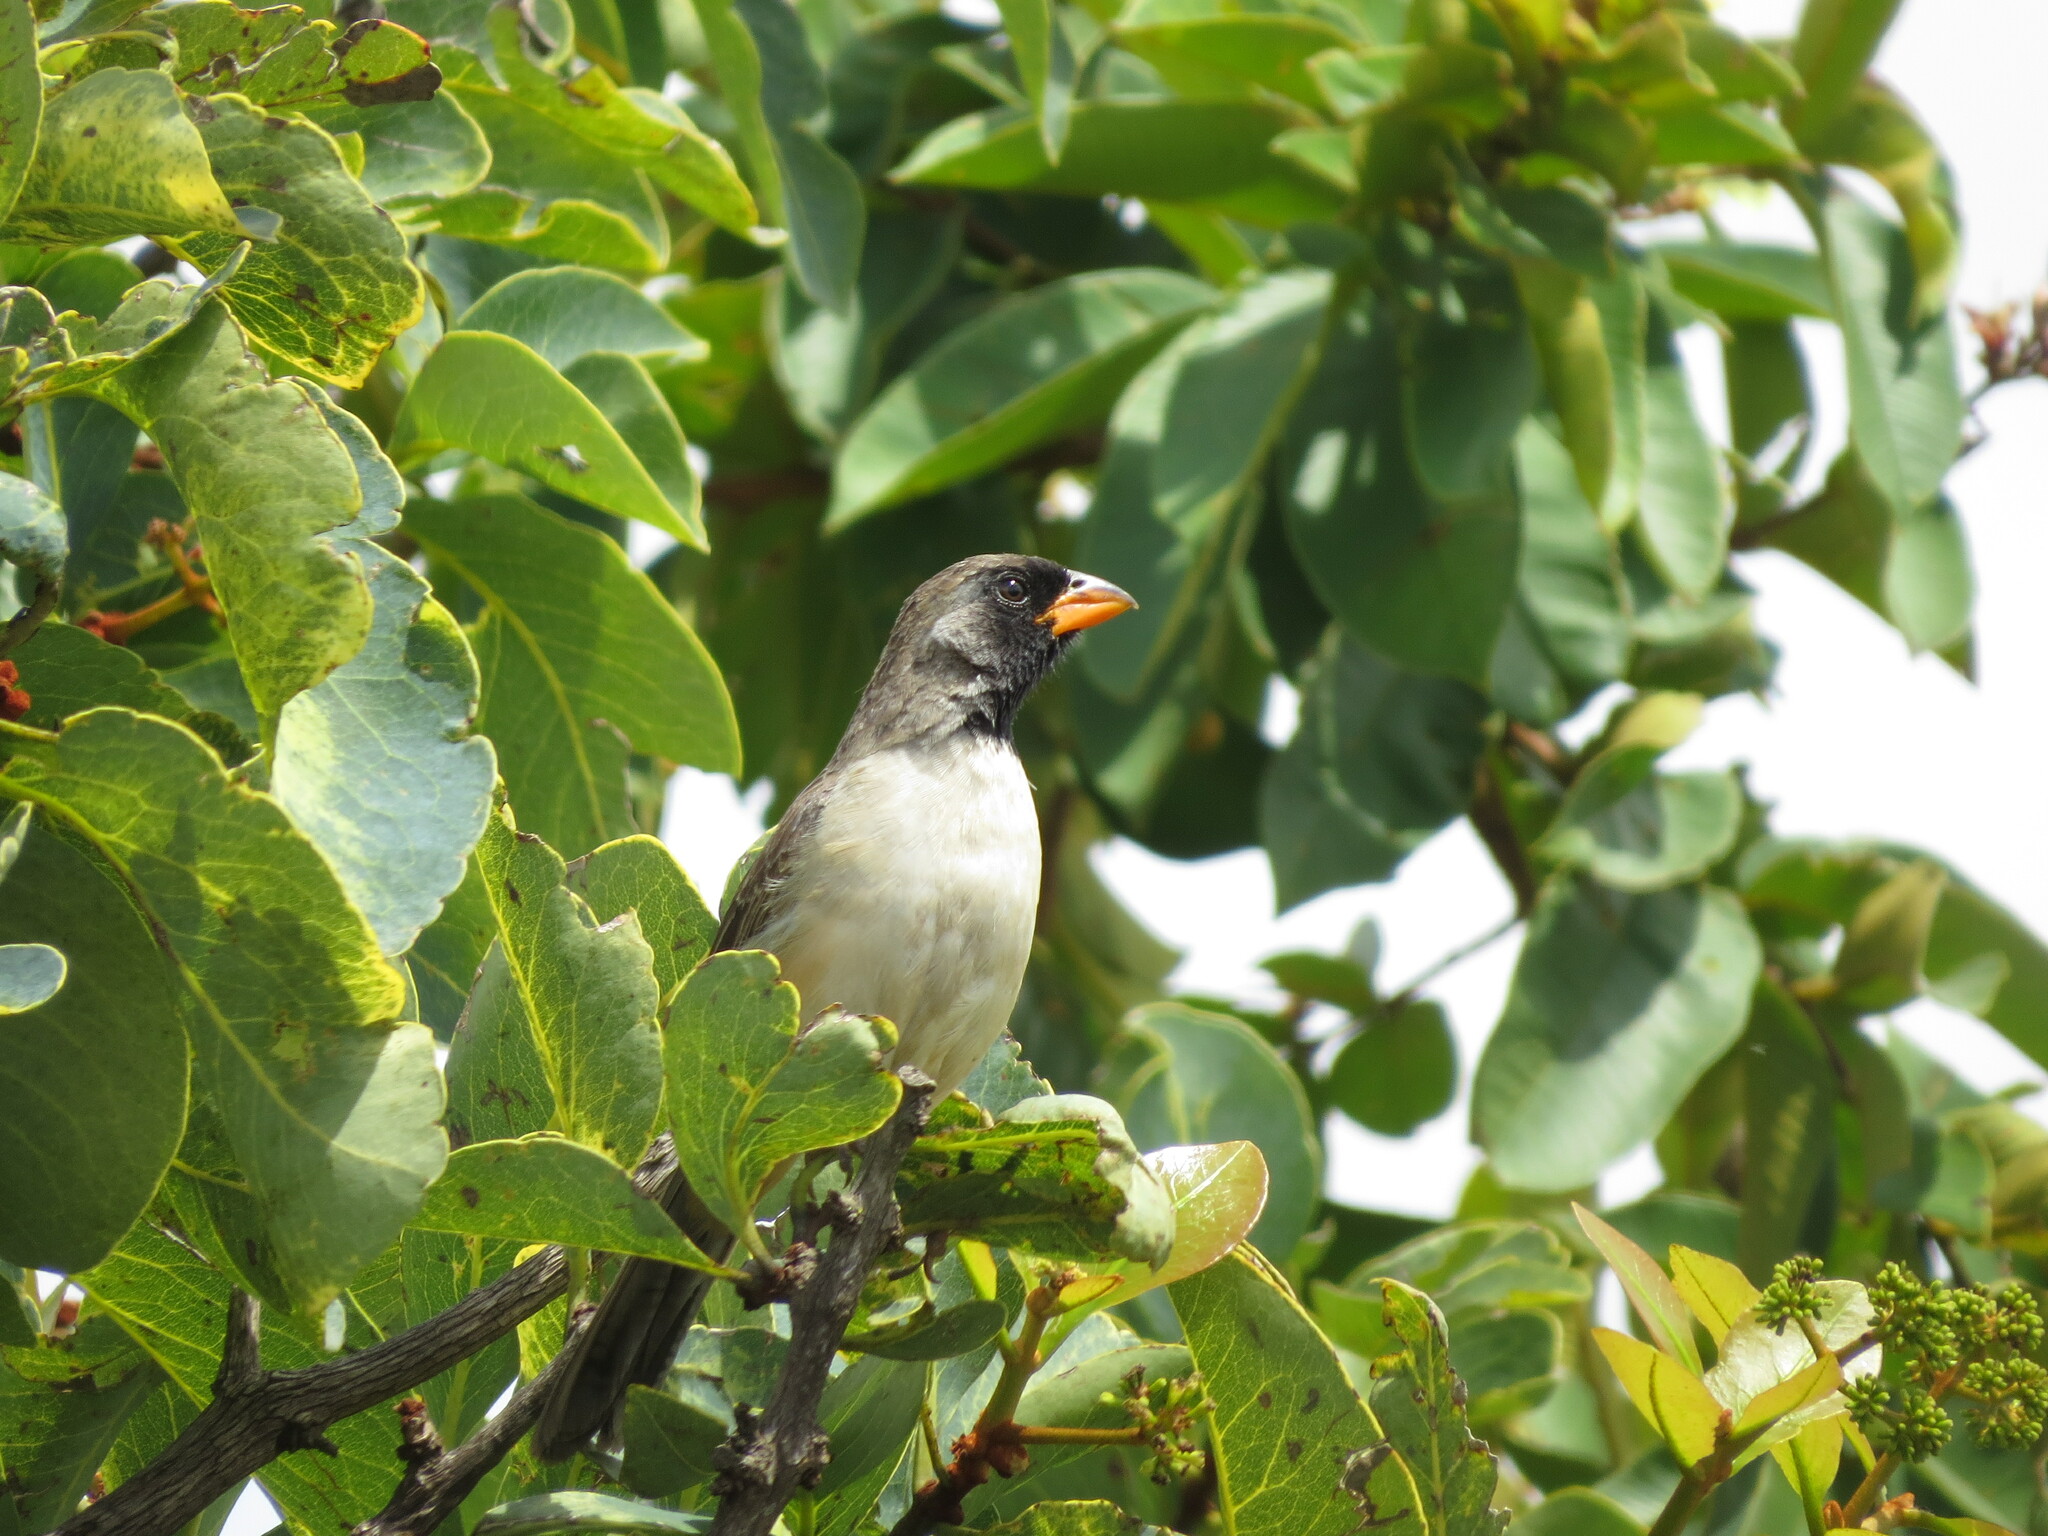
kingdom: Animalia
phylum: Chordata
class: Aves
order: Passeriformes
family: Thraupidae
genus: Saltatricula
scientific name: Saltatricula atricollis
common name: Black-throated saltator
